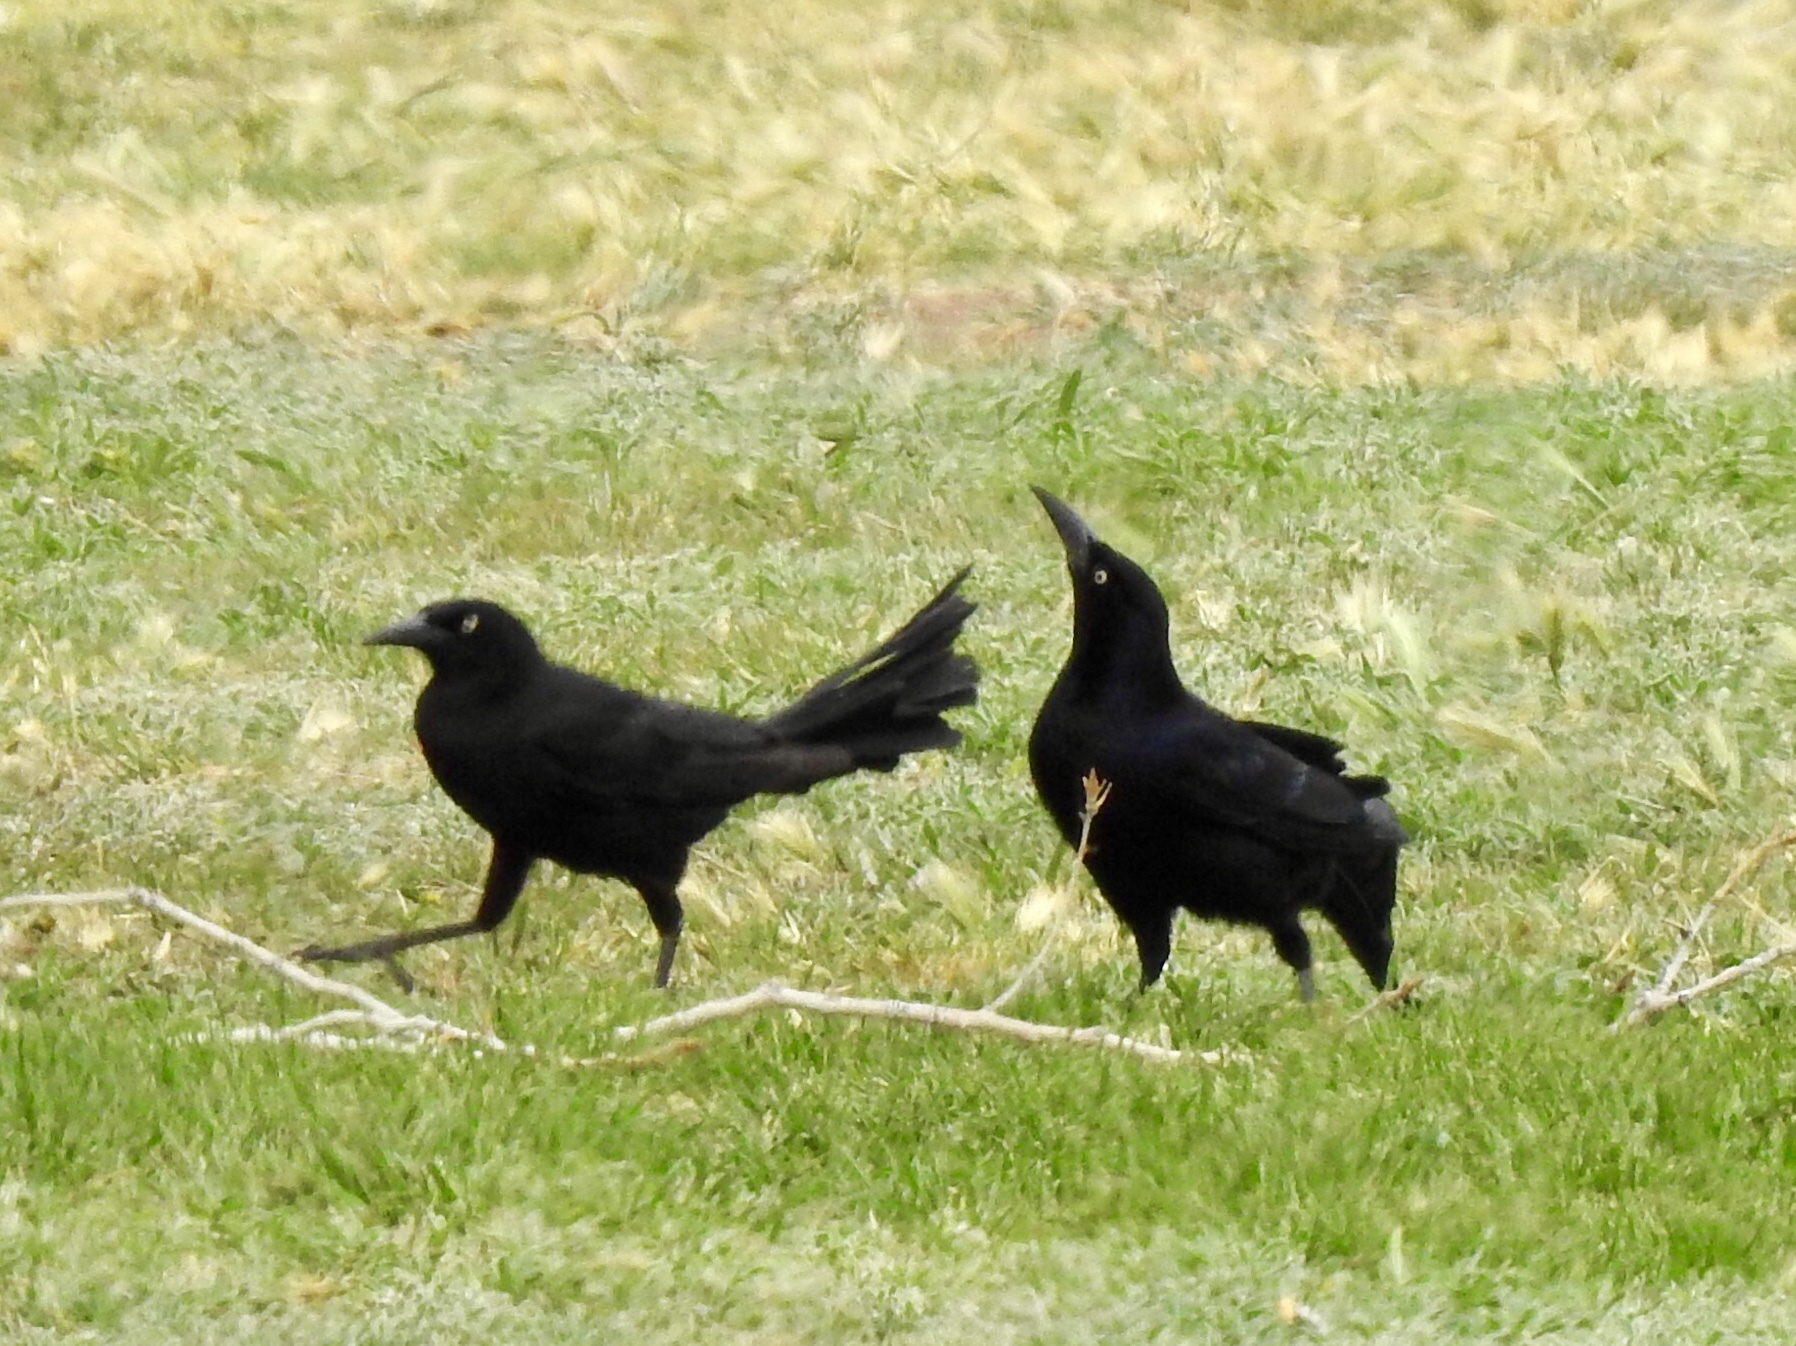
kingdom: Animalia
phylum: Chordata
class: Aves
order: Passeriformes
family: Icteridae
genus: Quiscalus
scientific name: Quiscalus mexicanus
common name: Great-tailed grackle
